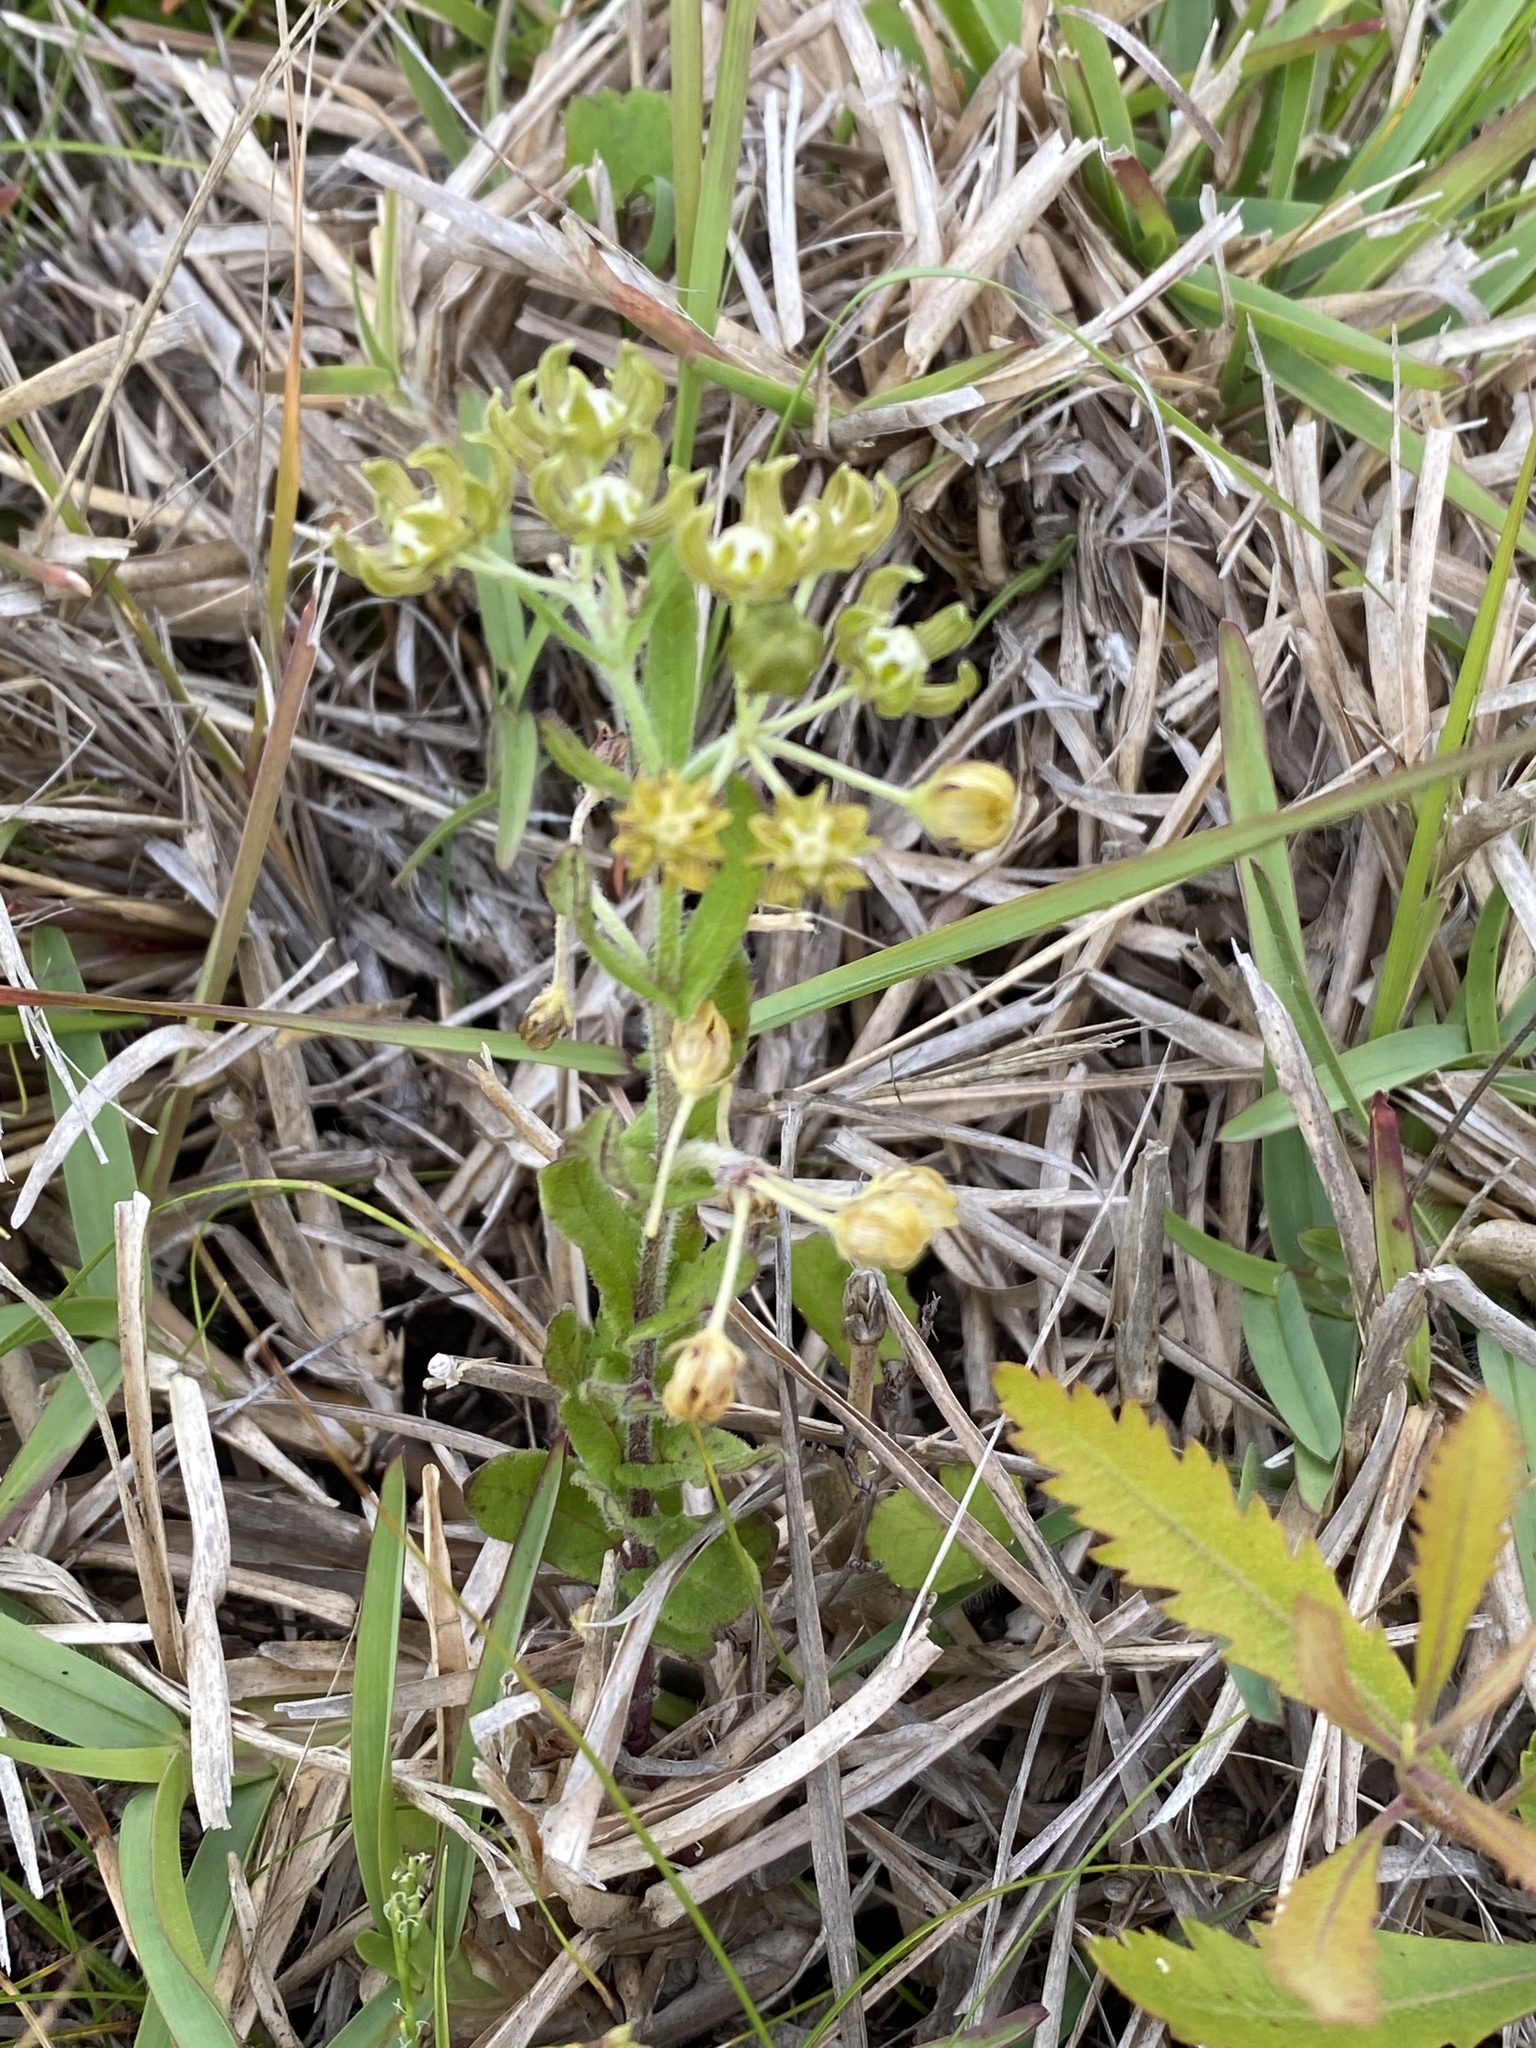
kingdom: Plantae
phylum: Tracheophyta
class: Magnoliopsida
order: Gentianales
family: Apocynaceae
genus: Schizoglossum
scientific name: Schizoglossum cordifolium
